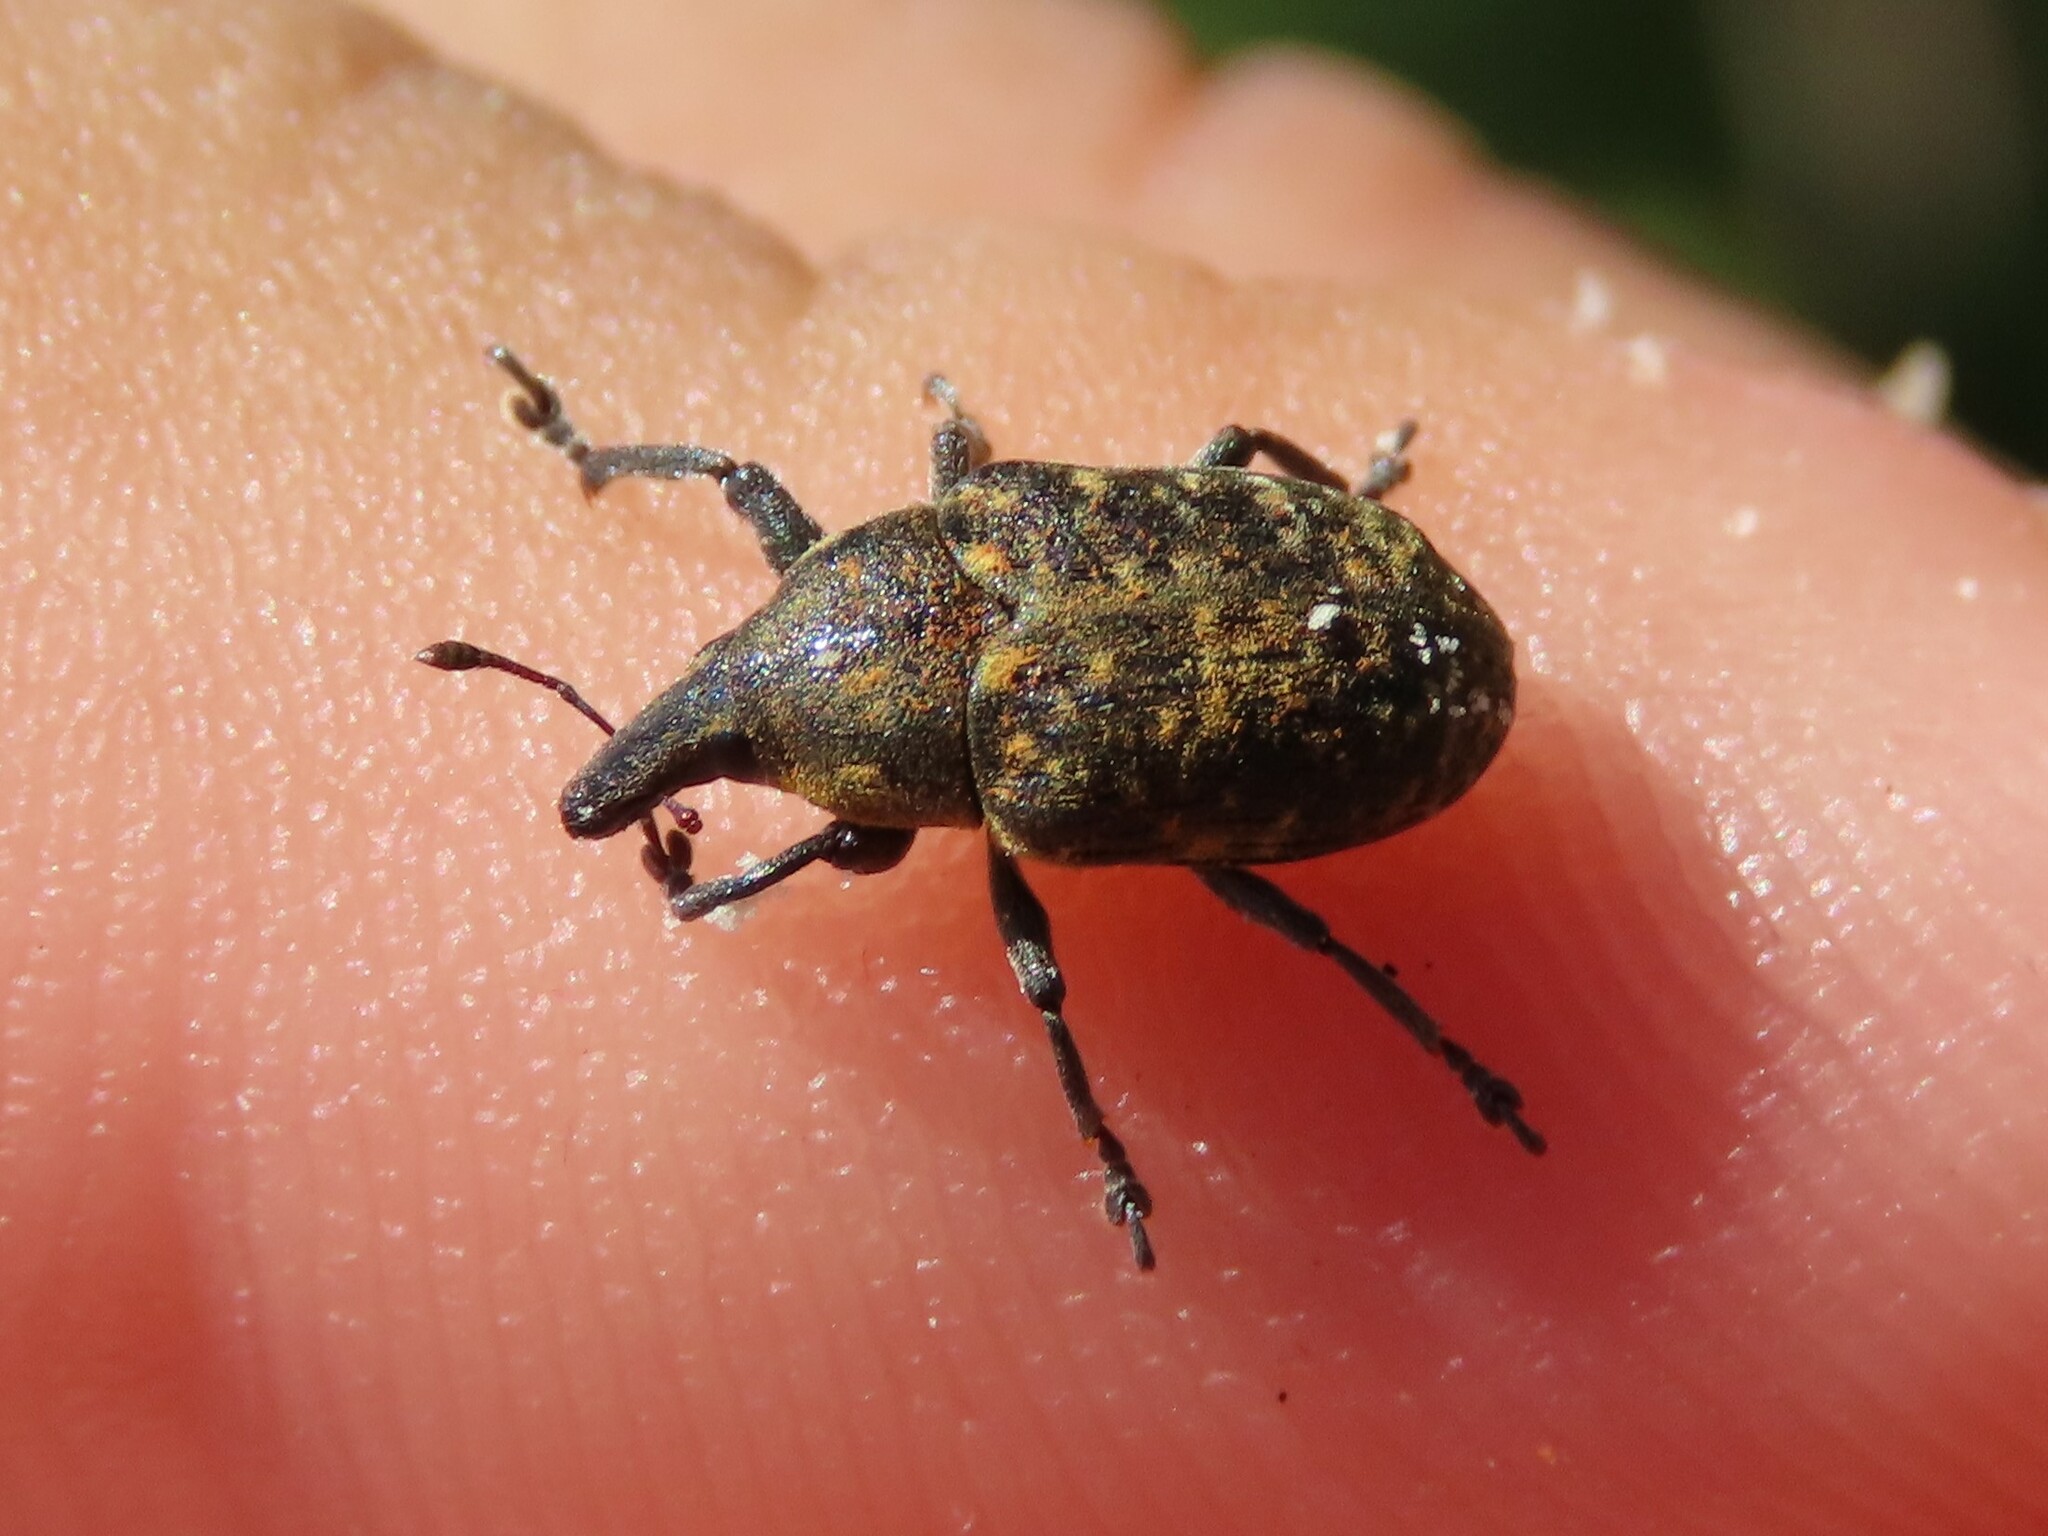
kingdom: Animalia
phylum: Arthropoda
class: Insecta
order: Coleoptera
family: Curculionidae
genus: Larinus
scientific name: Larinus turbinatus
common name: Weevil
